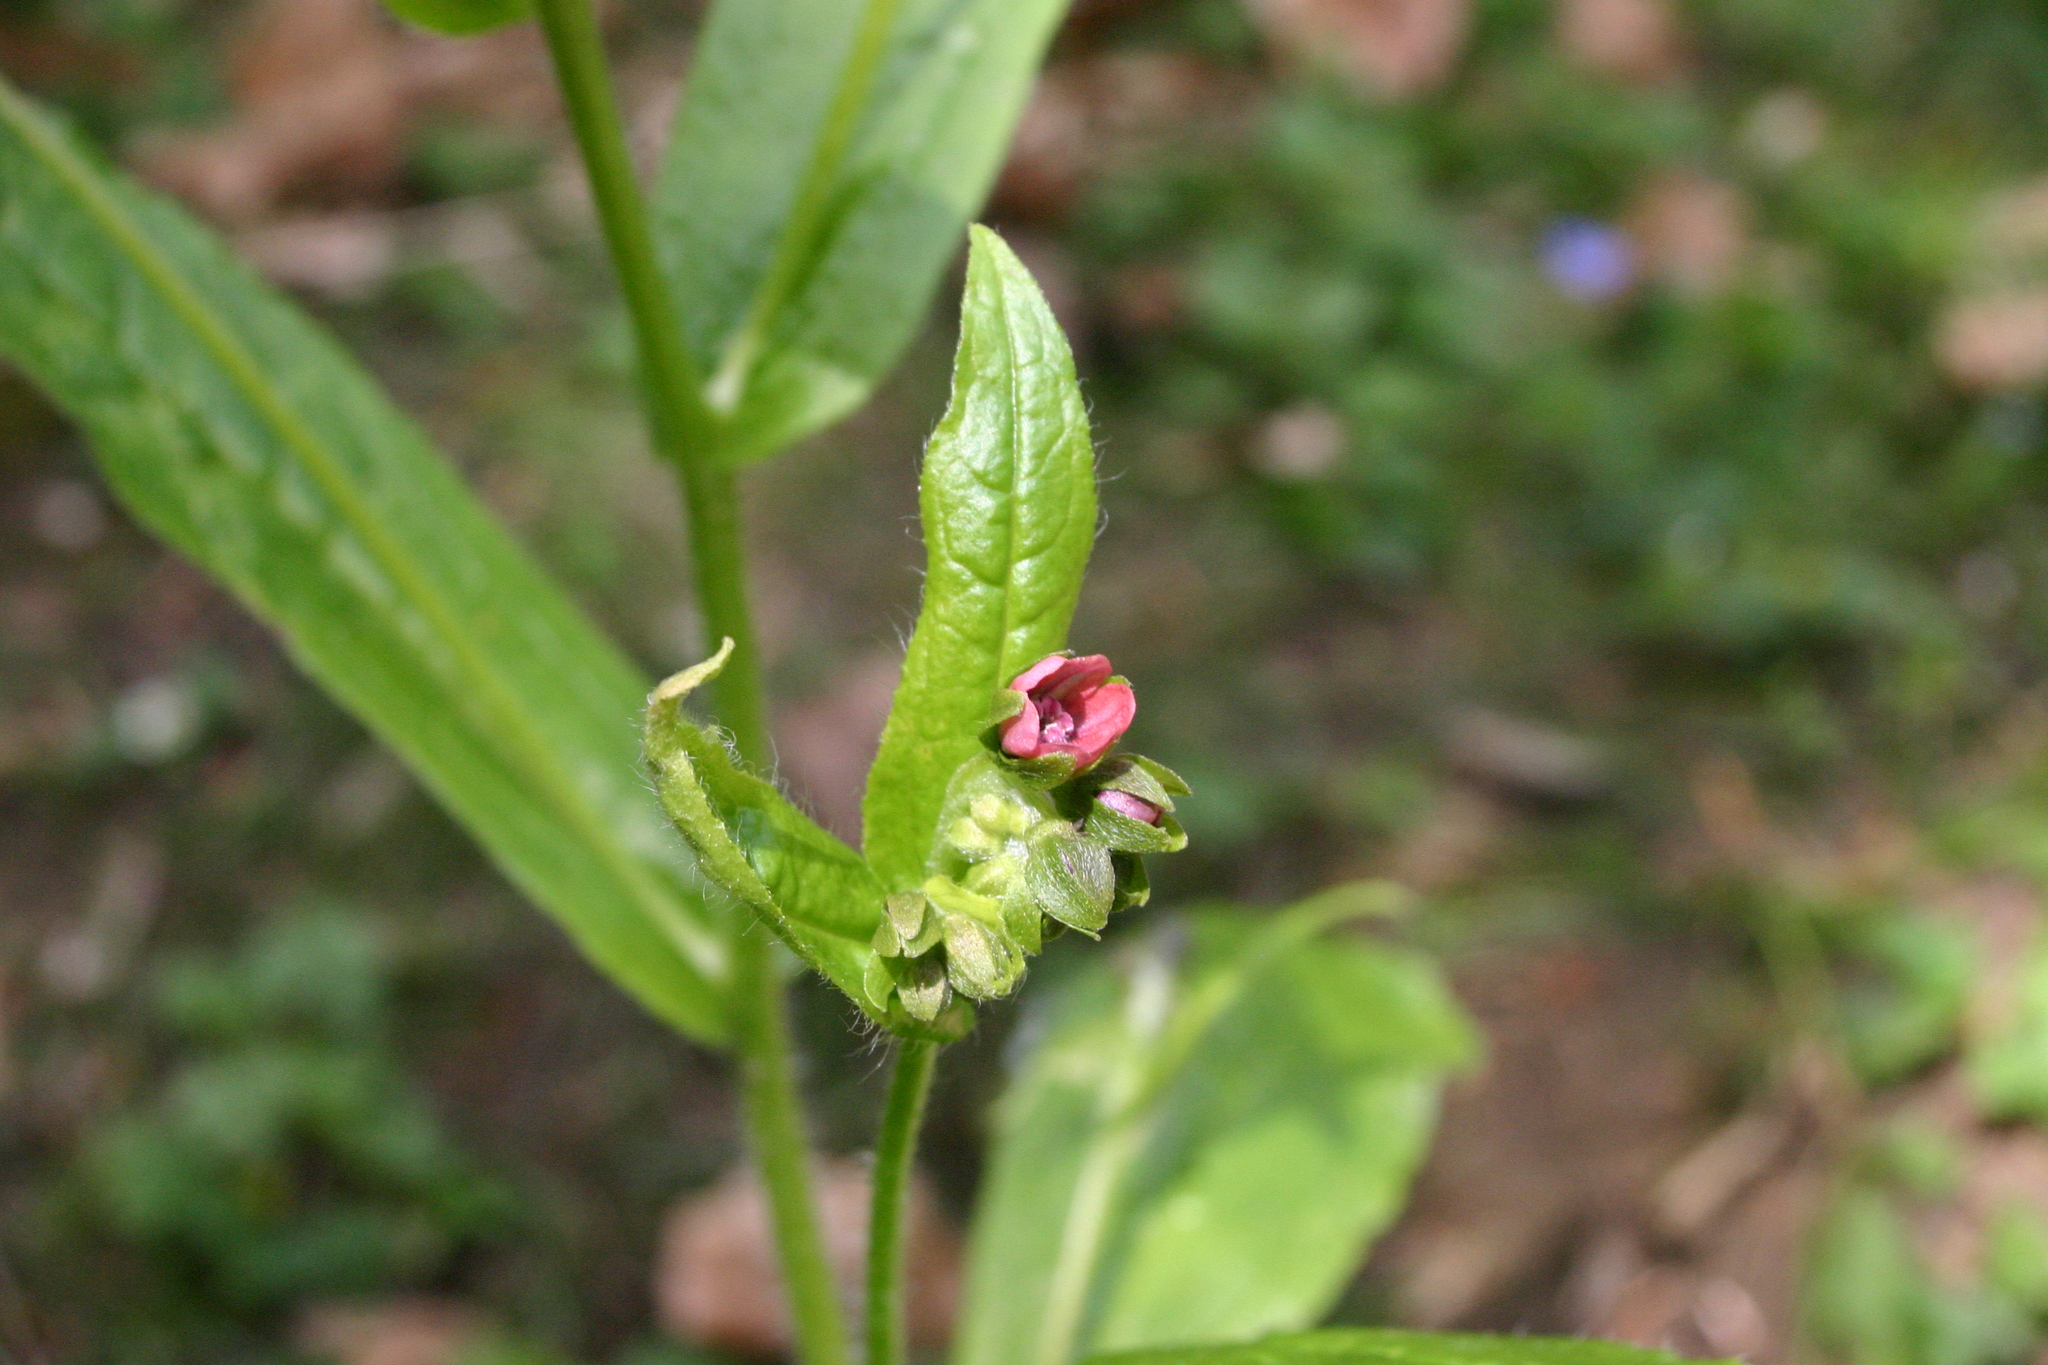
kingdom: Plantae
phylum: Tracheophyta
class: Magnoliopsida
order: Boraginales
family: Boraginaceae
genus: Cynoglossum
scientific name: Cynoglossum germanicum
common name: Green hound's-tongue
